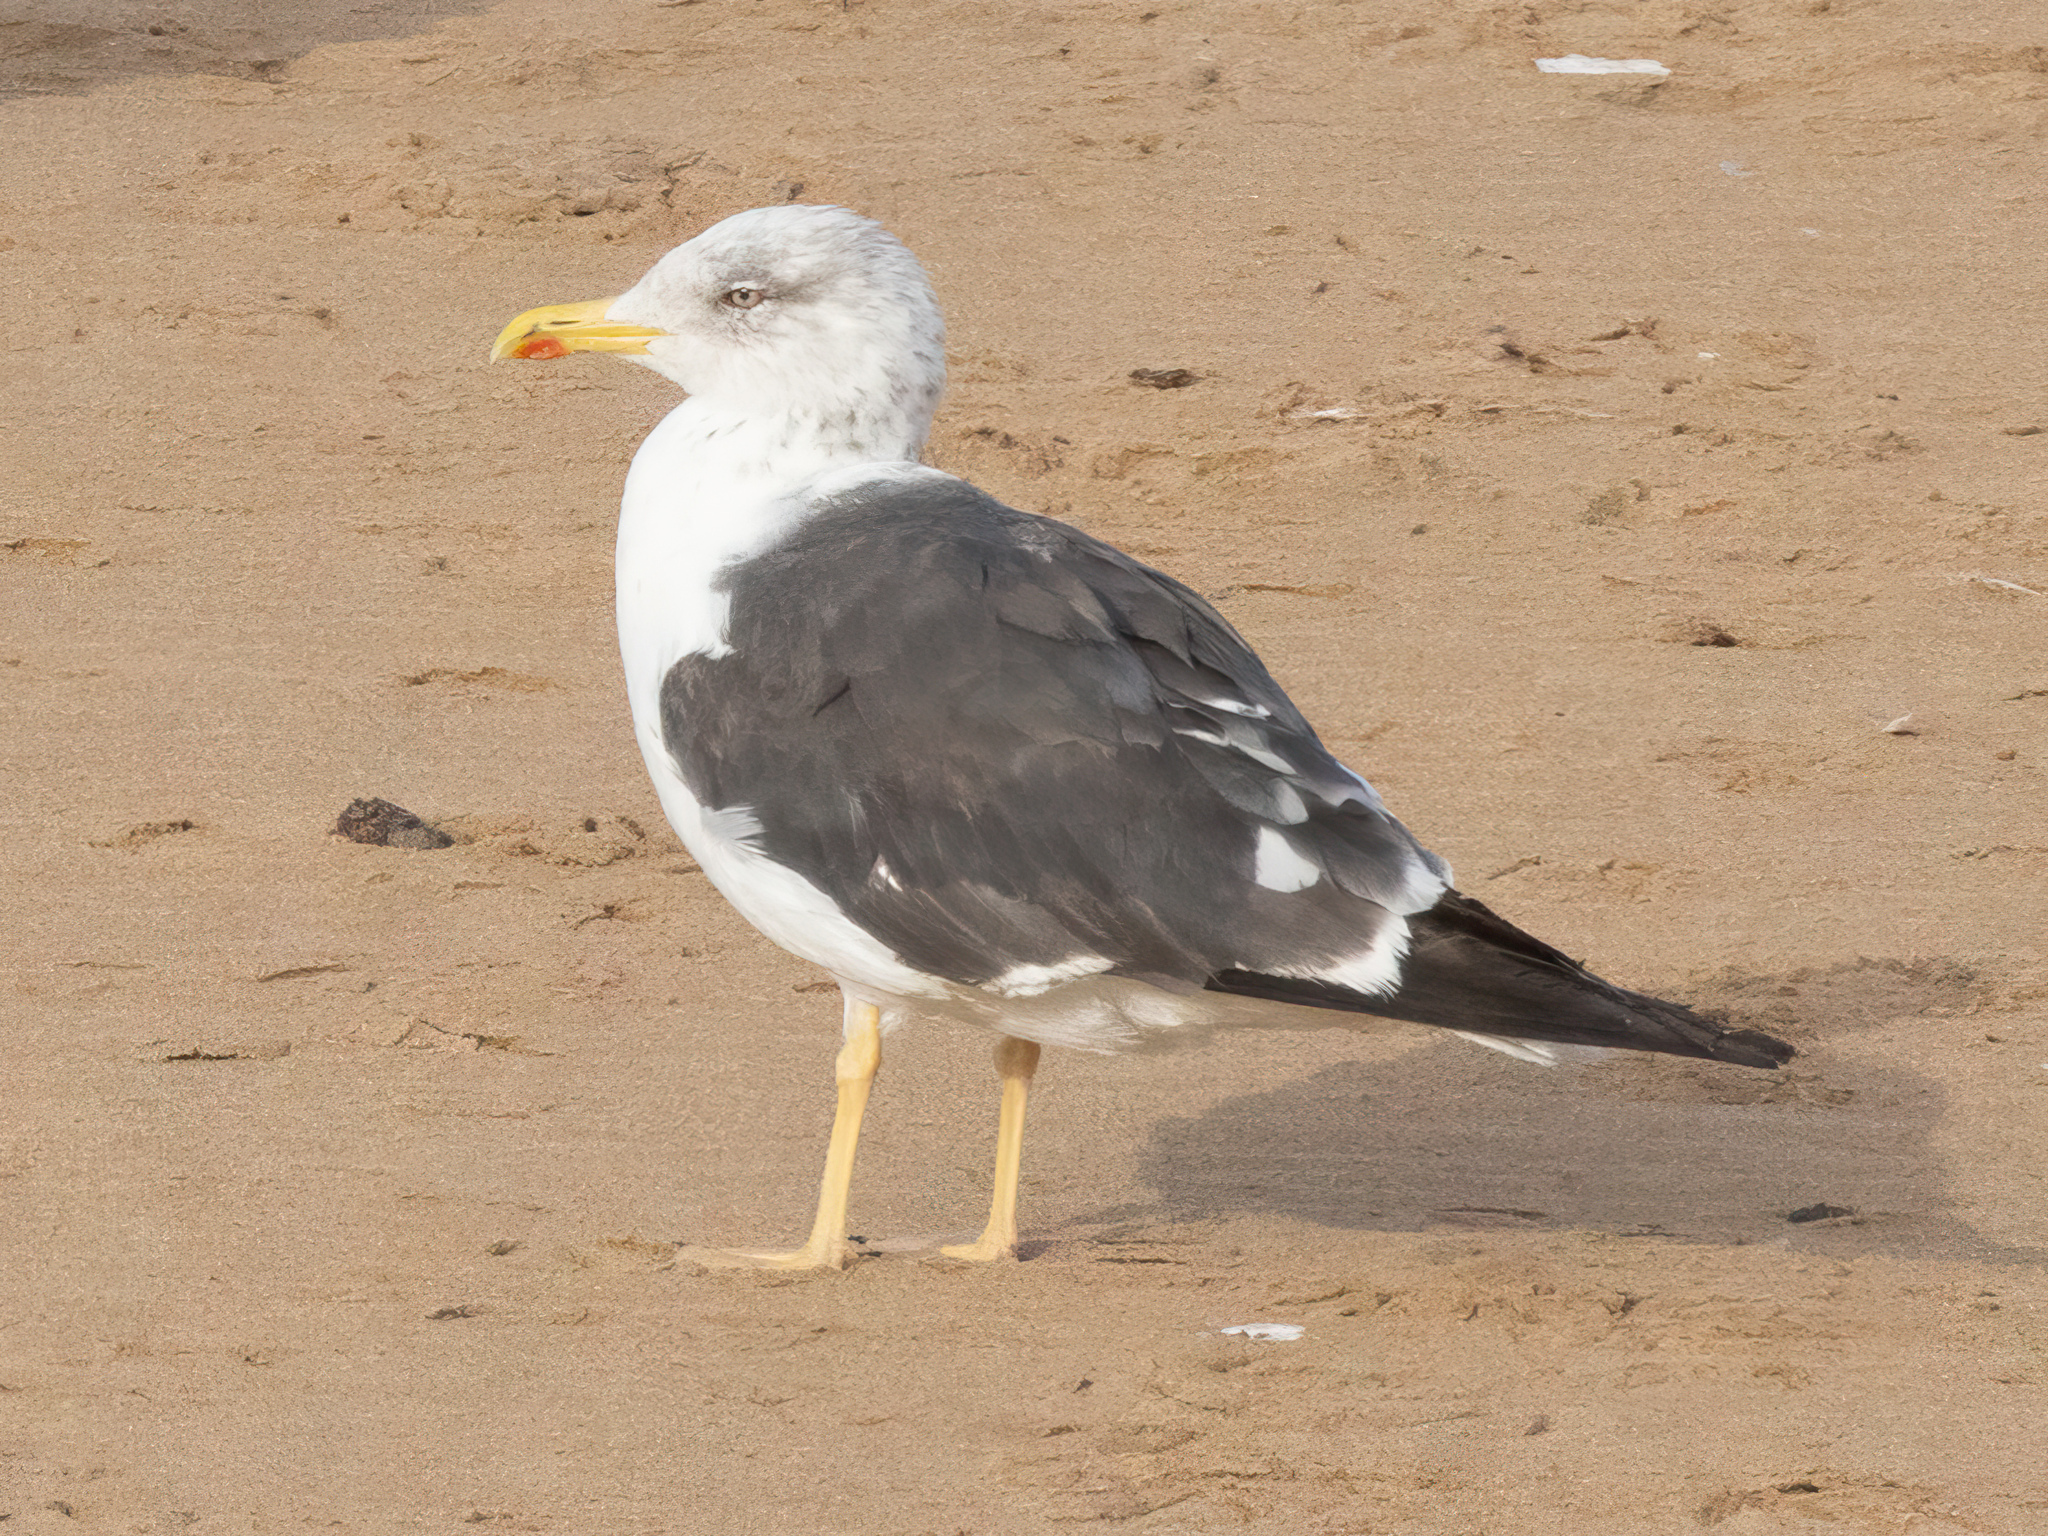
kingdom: Animalia
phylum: Chordata
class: Aves
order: Charadriiformes
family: Laridae
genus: Larus
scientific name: Larus fuscus
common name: Lesser black-backed gull
